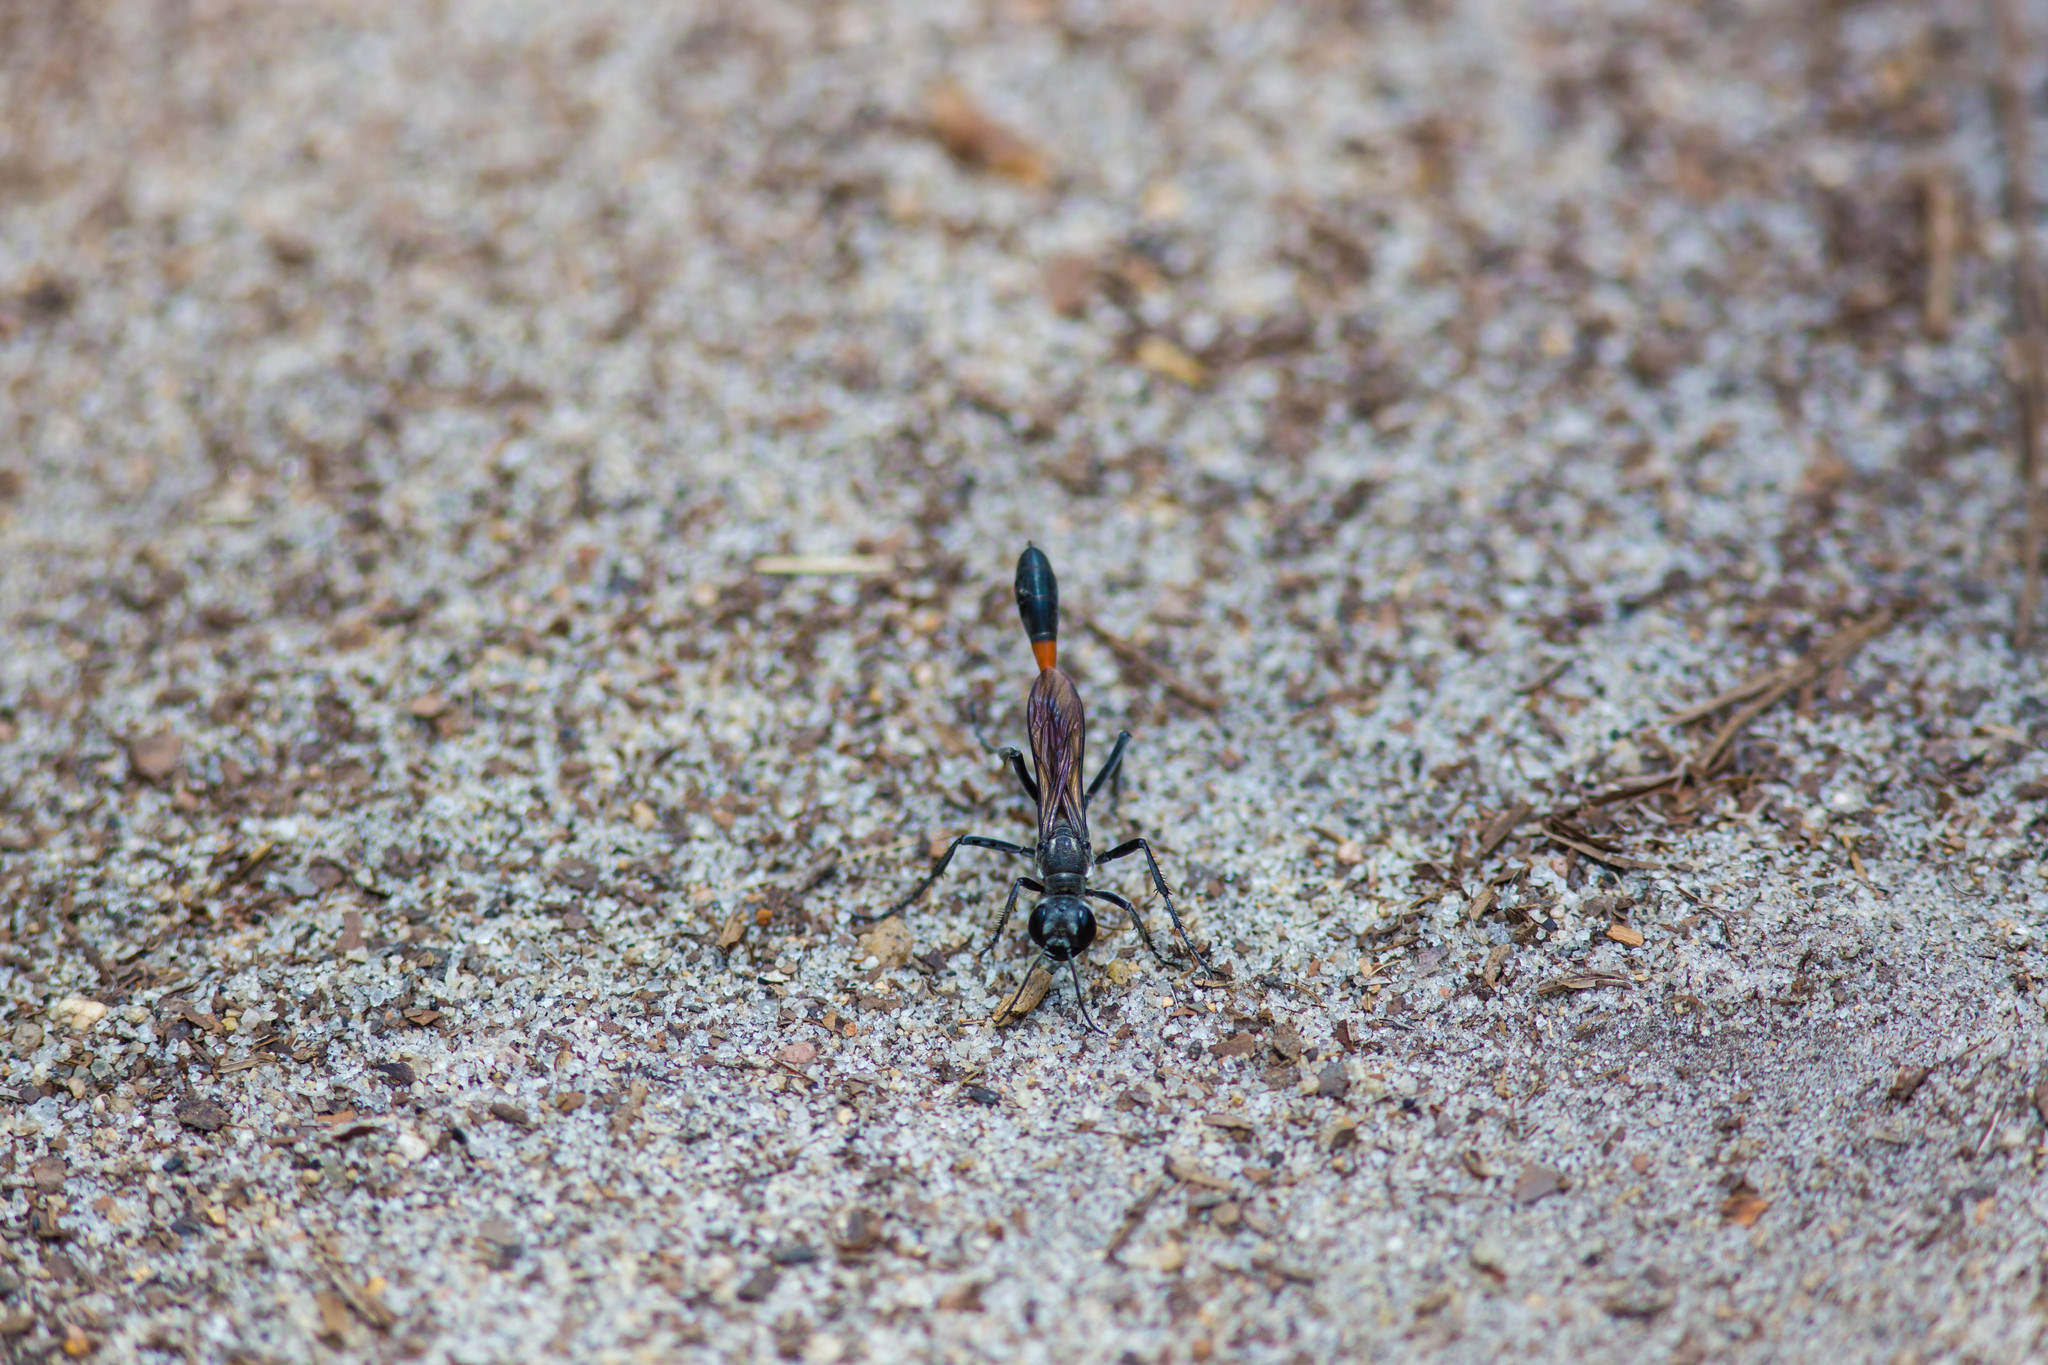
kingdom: Animalia
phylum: Arthropoda
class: Insecta
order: Hymenoptera
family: Sphecidae
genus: Ammophila
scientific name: Ammophila procera
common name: Common thread-waisted wasp
